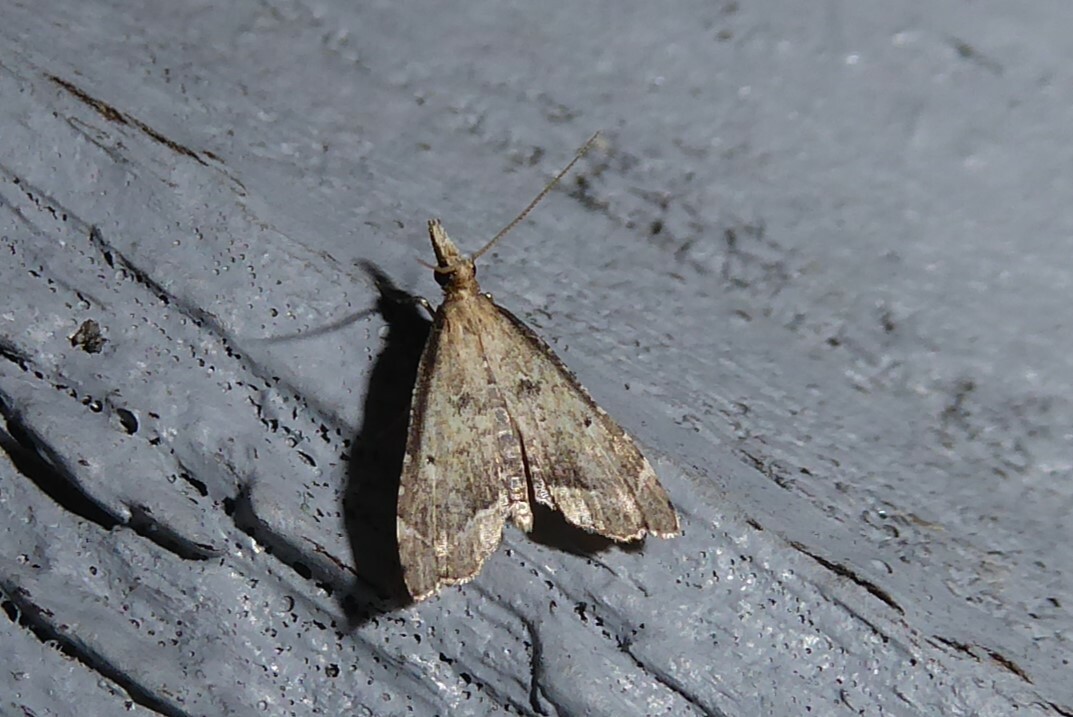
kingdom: Animalia
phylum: Arthropoda
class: Insecta
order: Lepidoptera
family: Crambidae
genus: Diplopseustis
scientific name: Diplopseustis perieresalis
